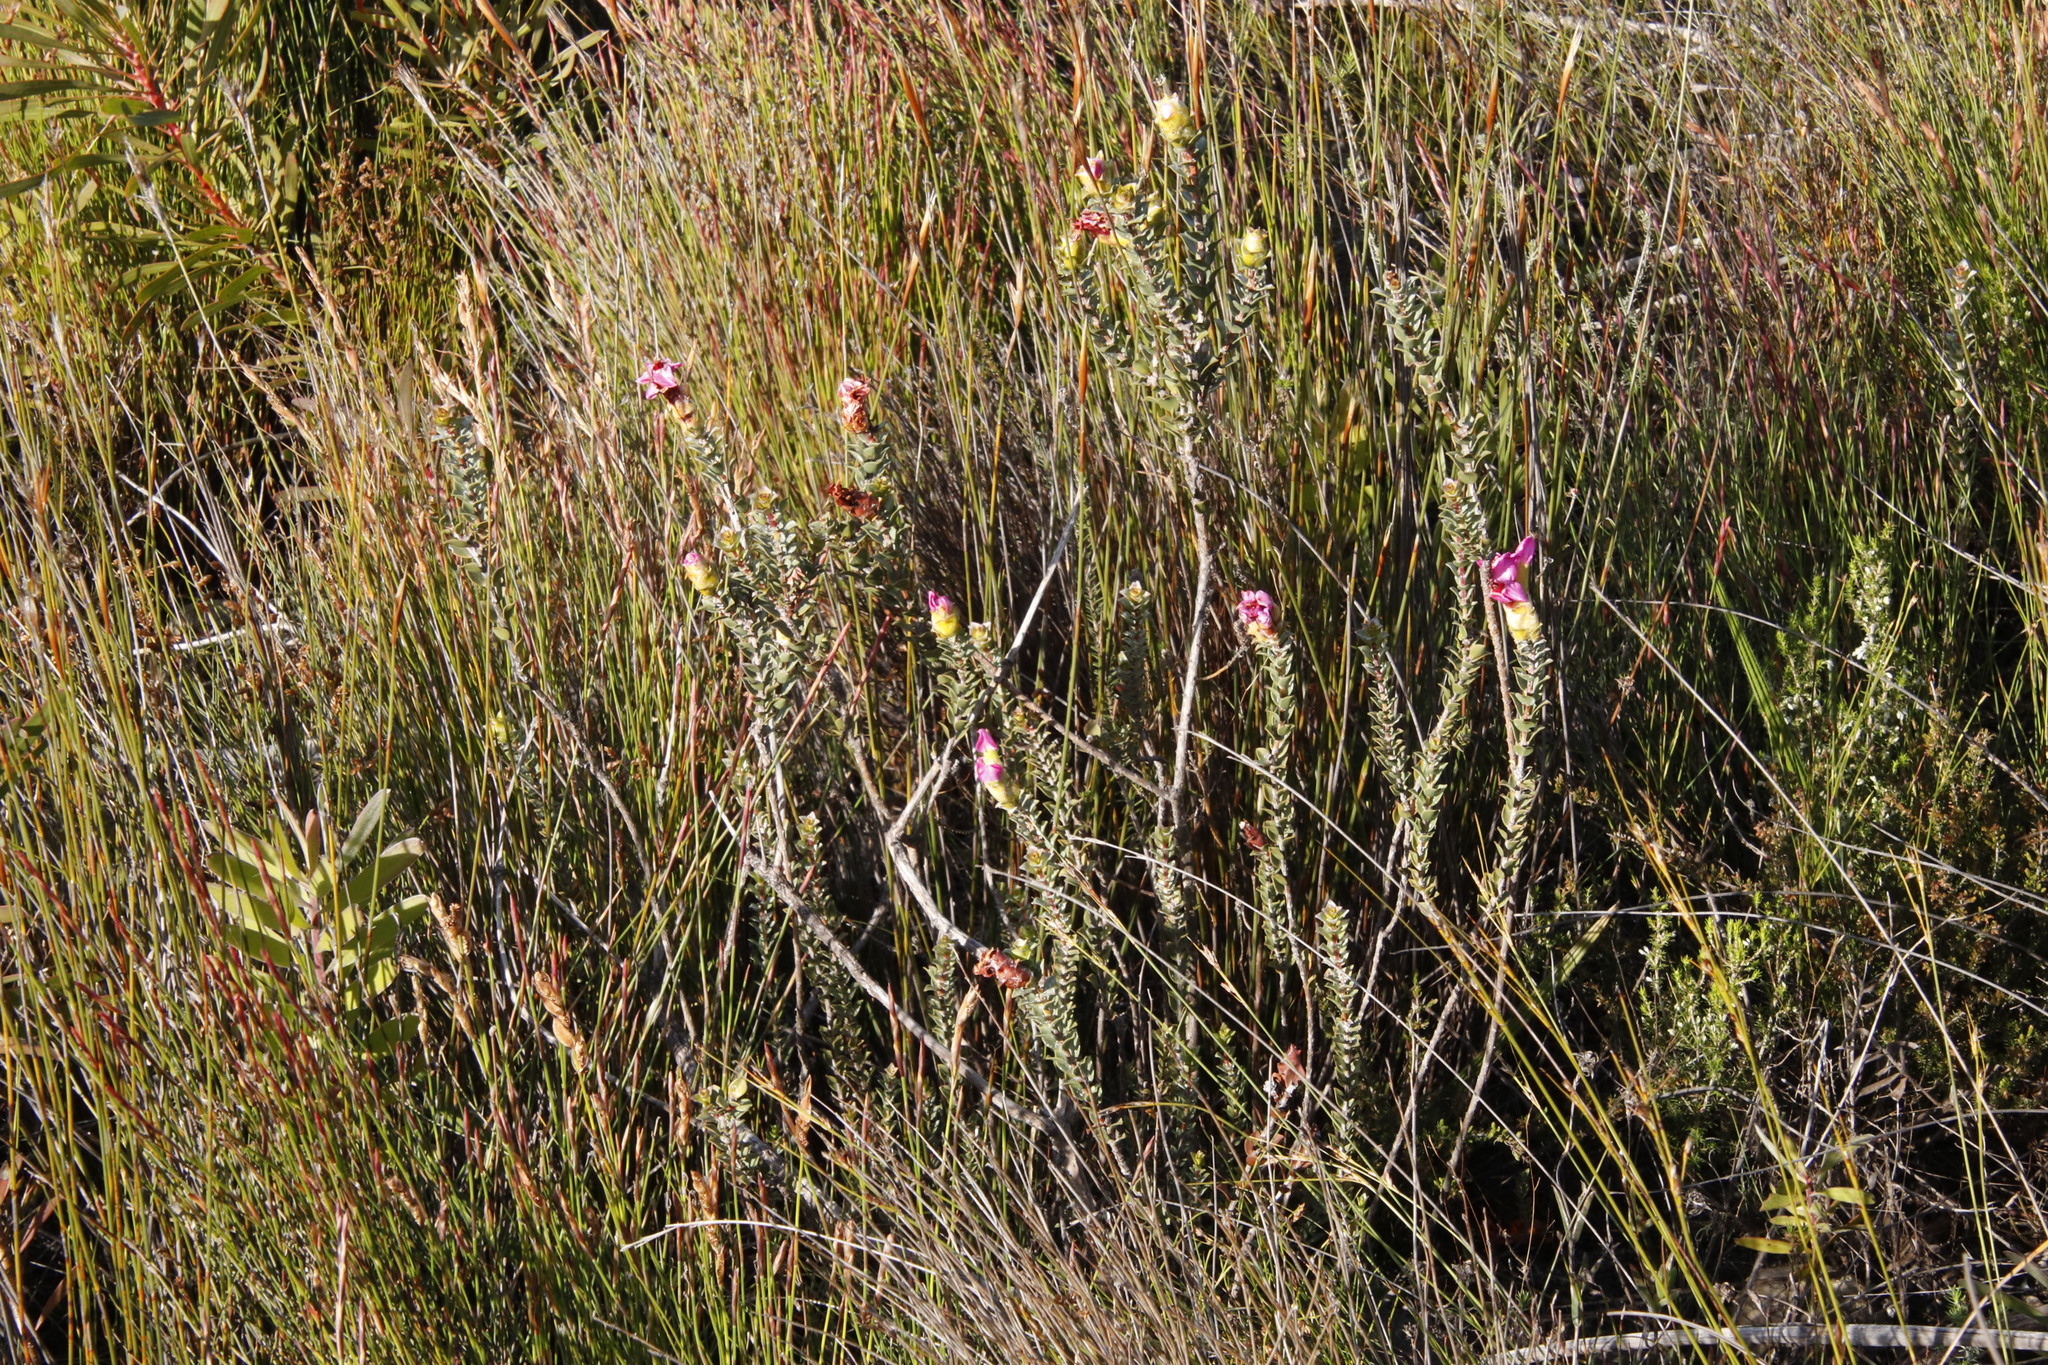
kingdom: Plantae
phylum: Tracheophyta
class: Magnoliopsida
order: Myrtales
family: Penaeaceae
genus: Saltera
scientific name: Saltera sarcocolla
